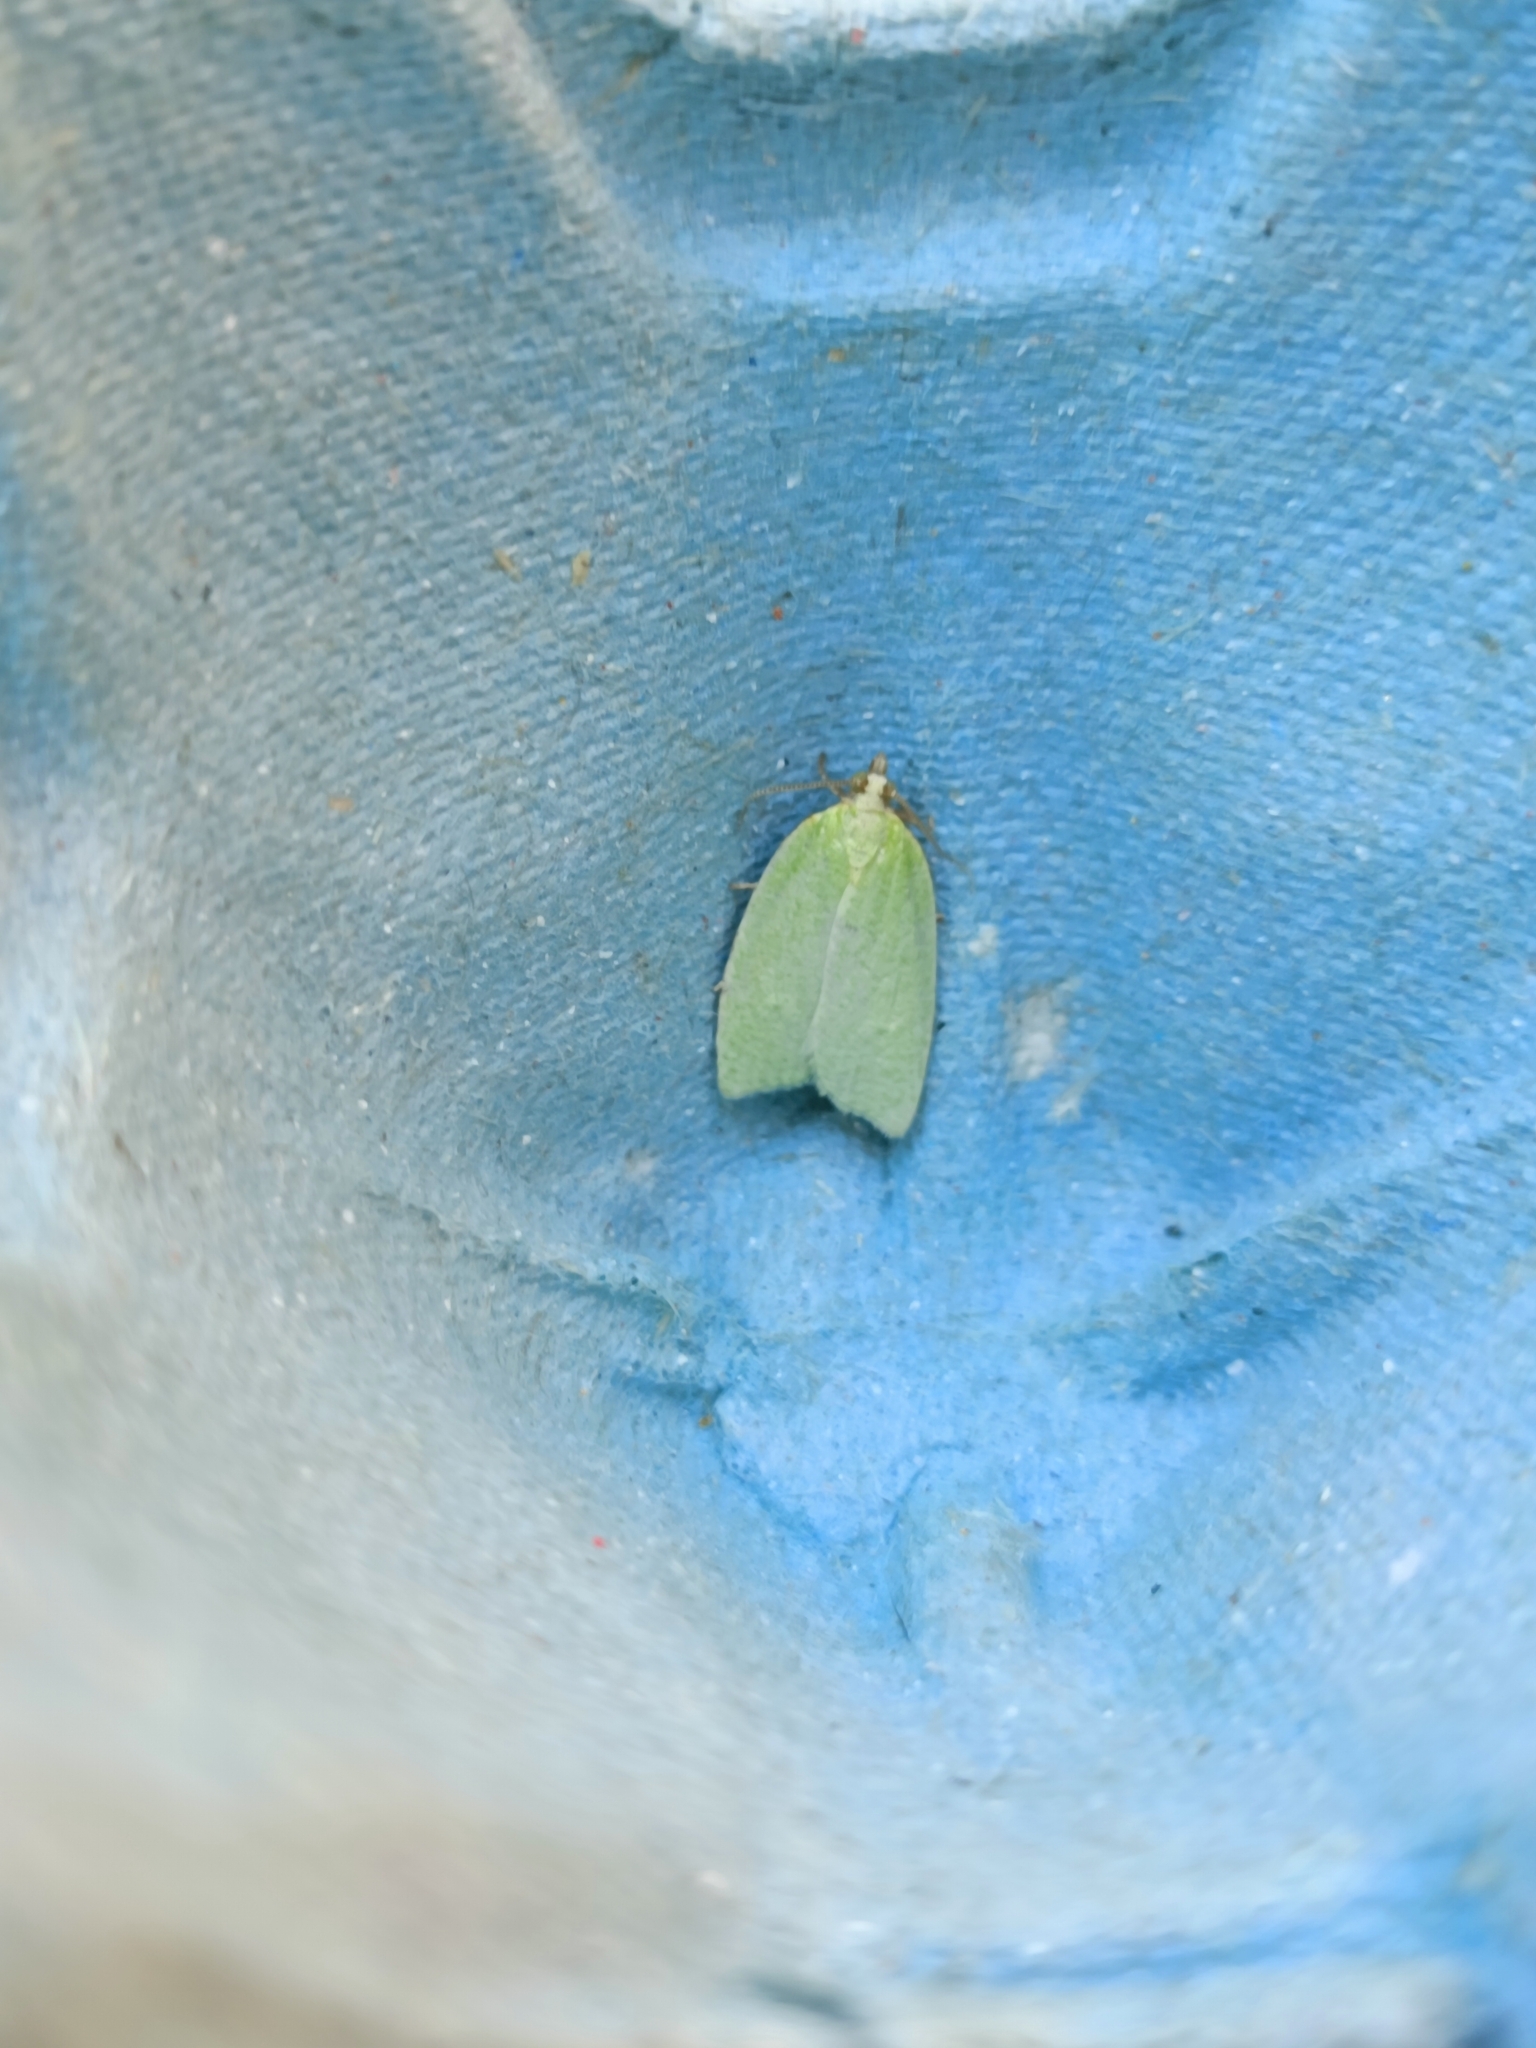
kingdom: Animalia
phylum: Arthropoda
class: Insecta
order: Lepidoptera
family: Tortricidae
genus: Tortrix
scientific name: Tortrix viridana
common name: Green oak tortrix
